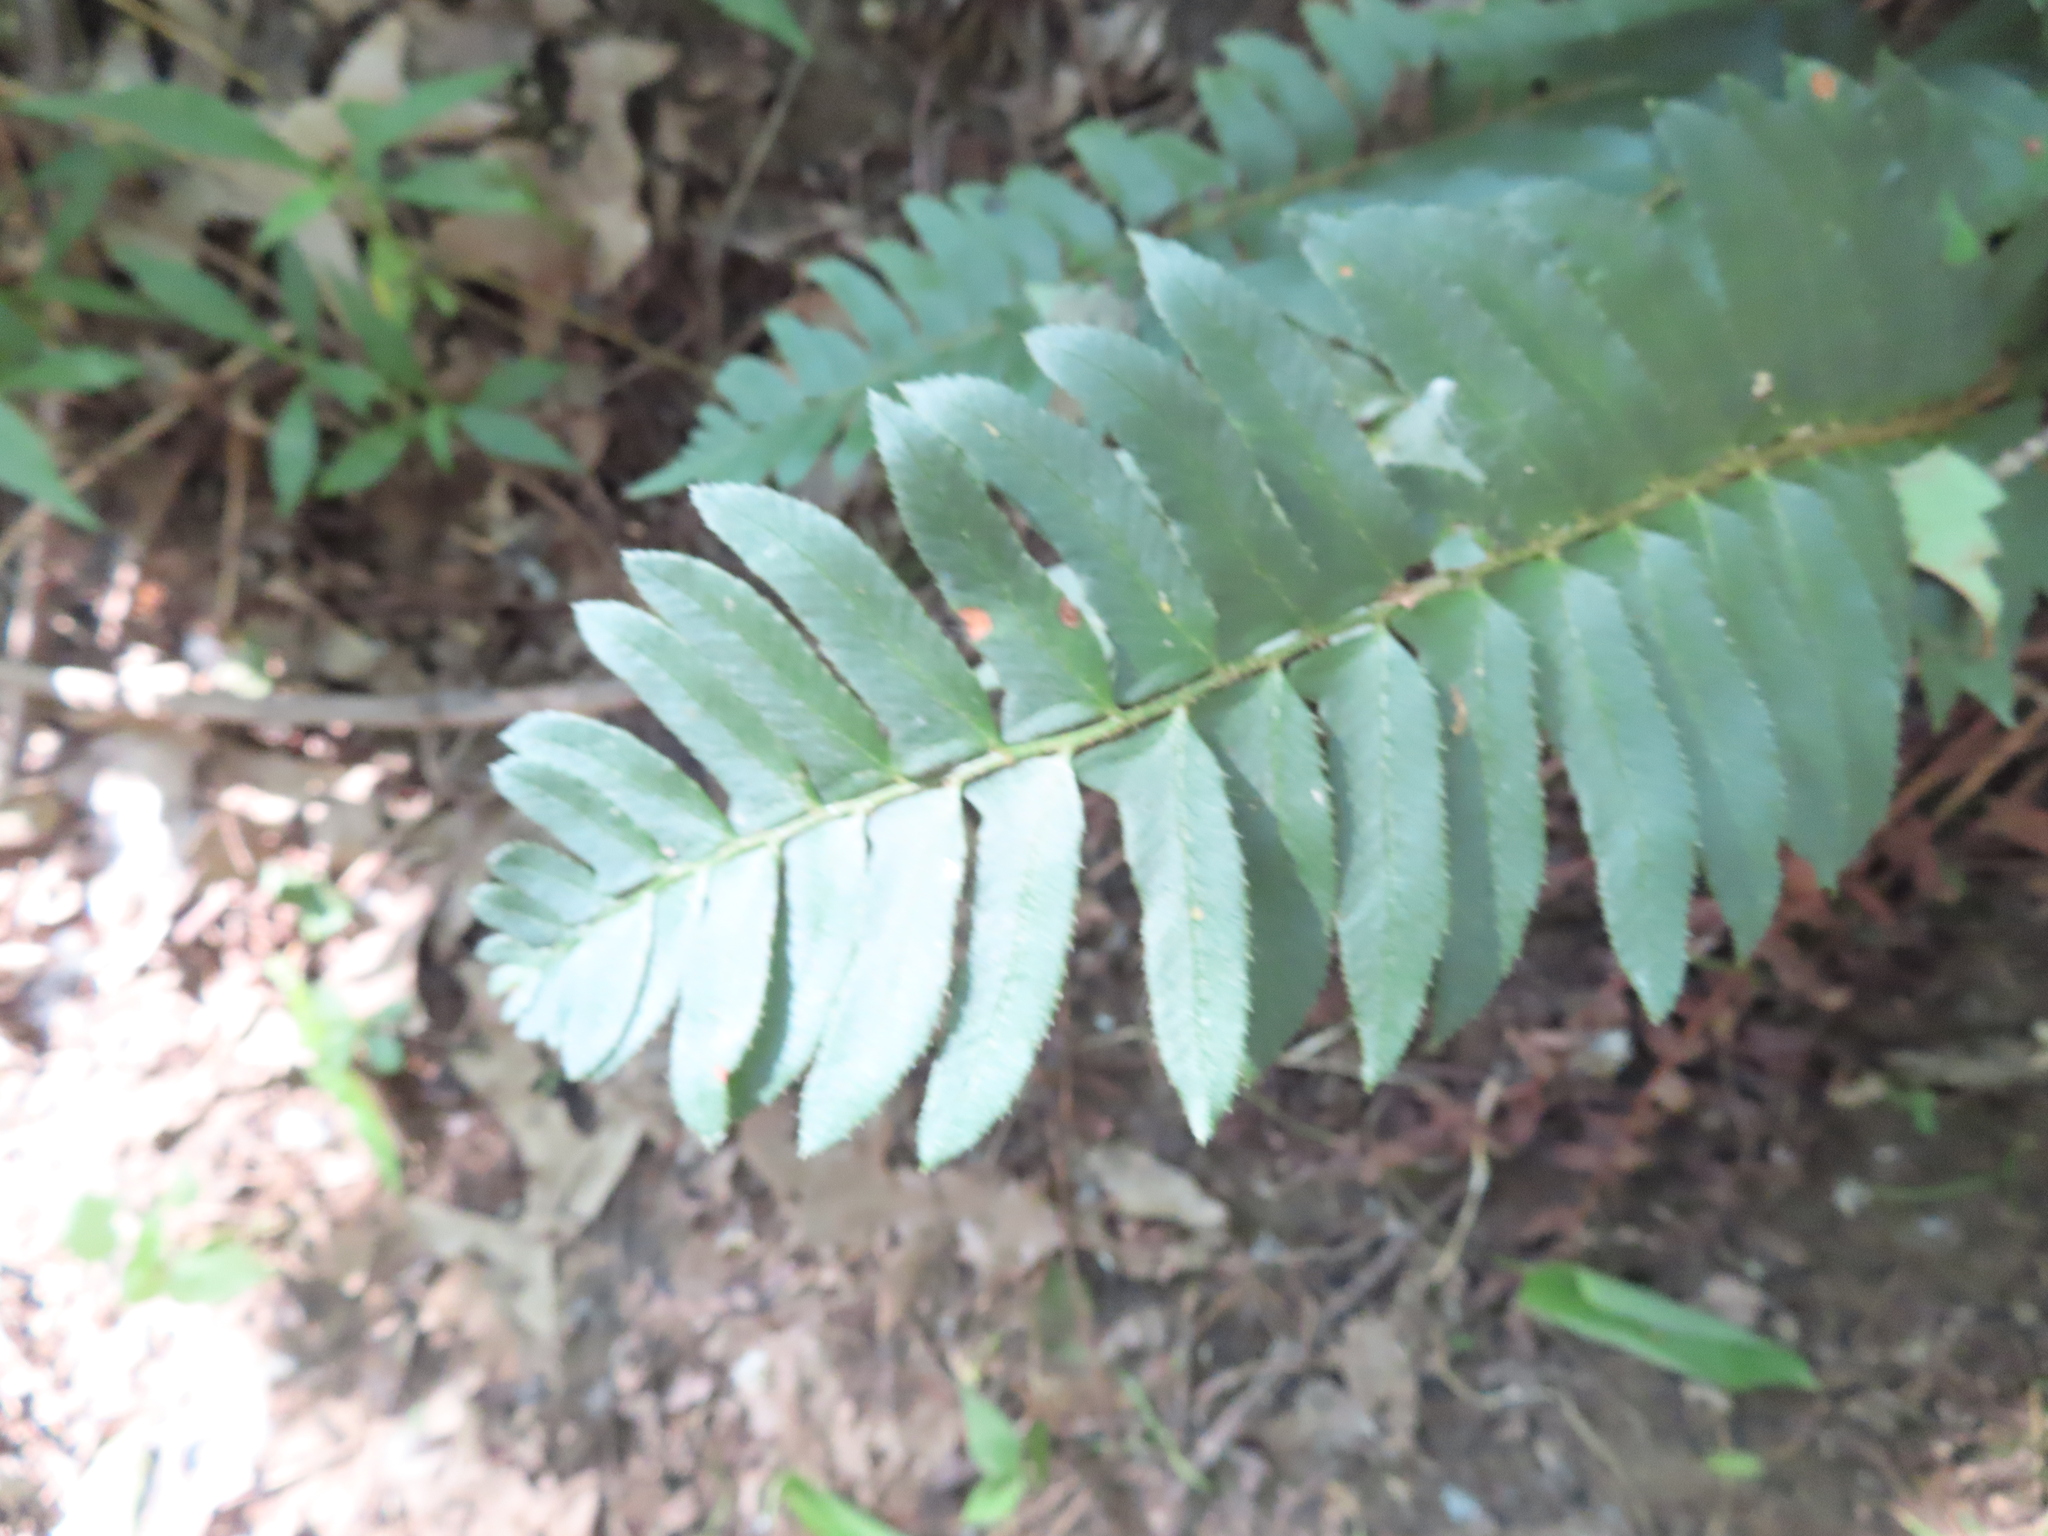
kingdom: Plantae
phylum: Tracheophyta
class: Polypodiopsida
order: Polypodiales
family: Dryopteridaceae
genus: Polystichum
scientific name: Polystichum acrostichoides
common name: Christmas fern
